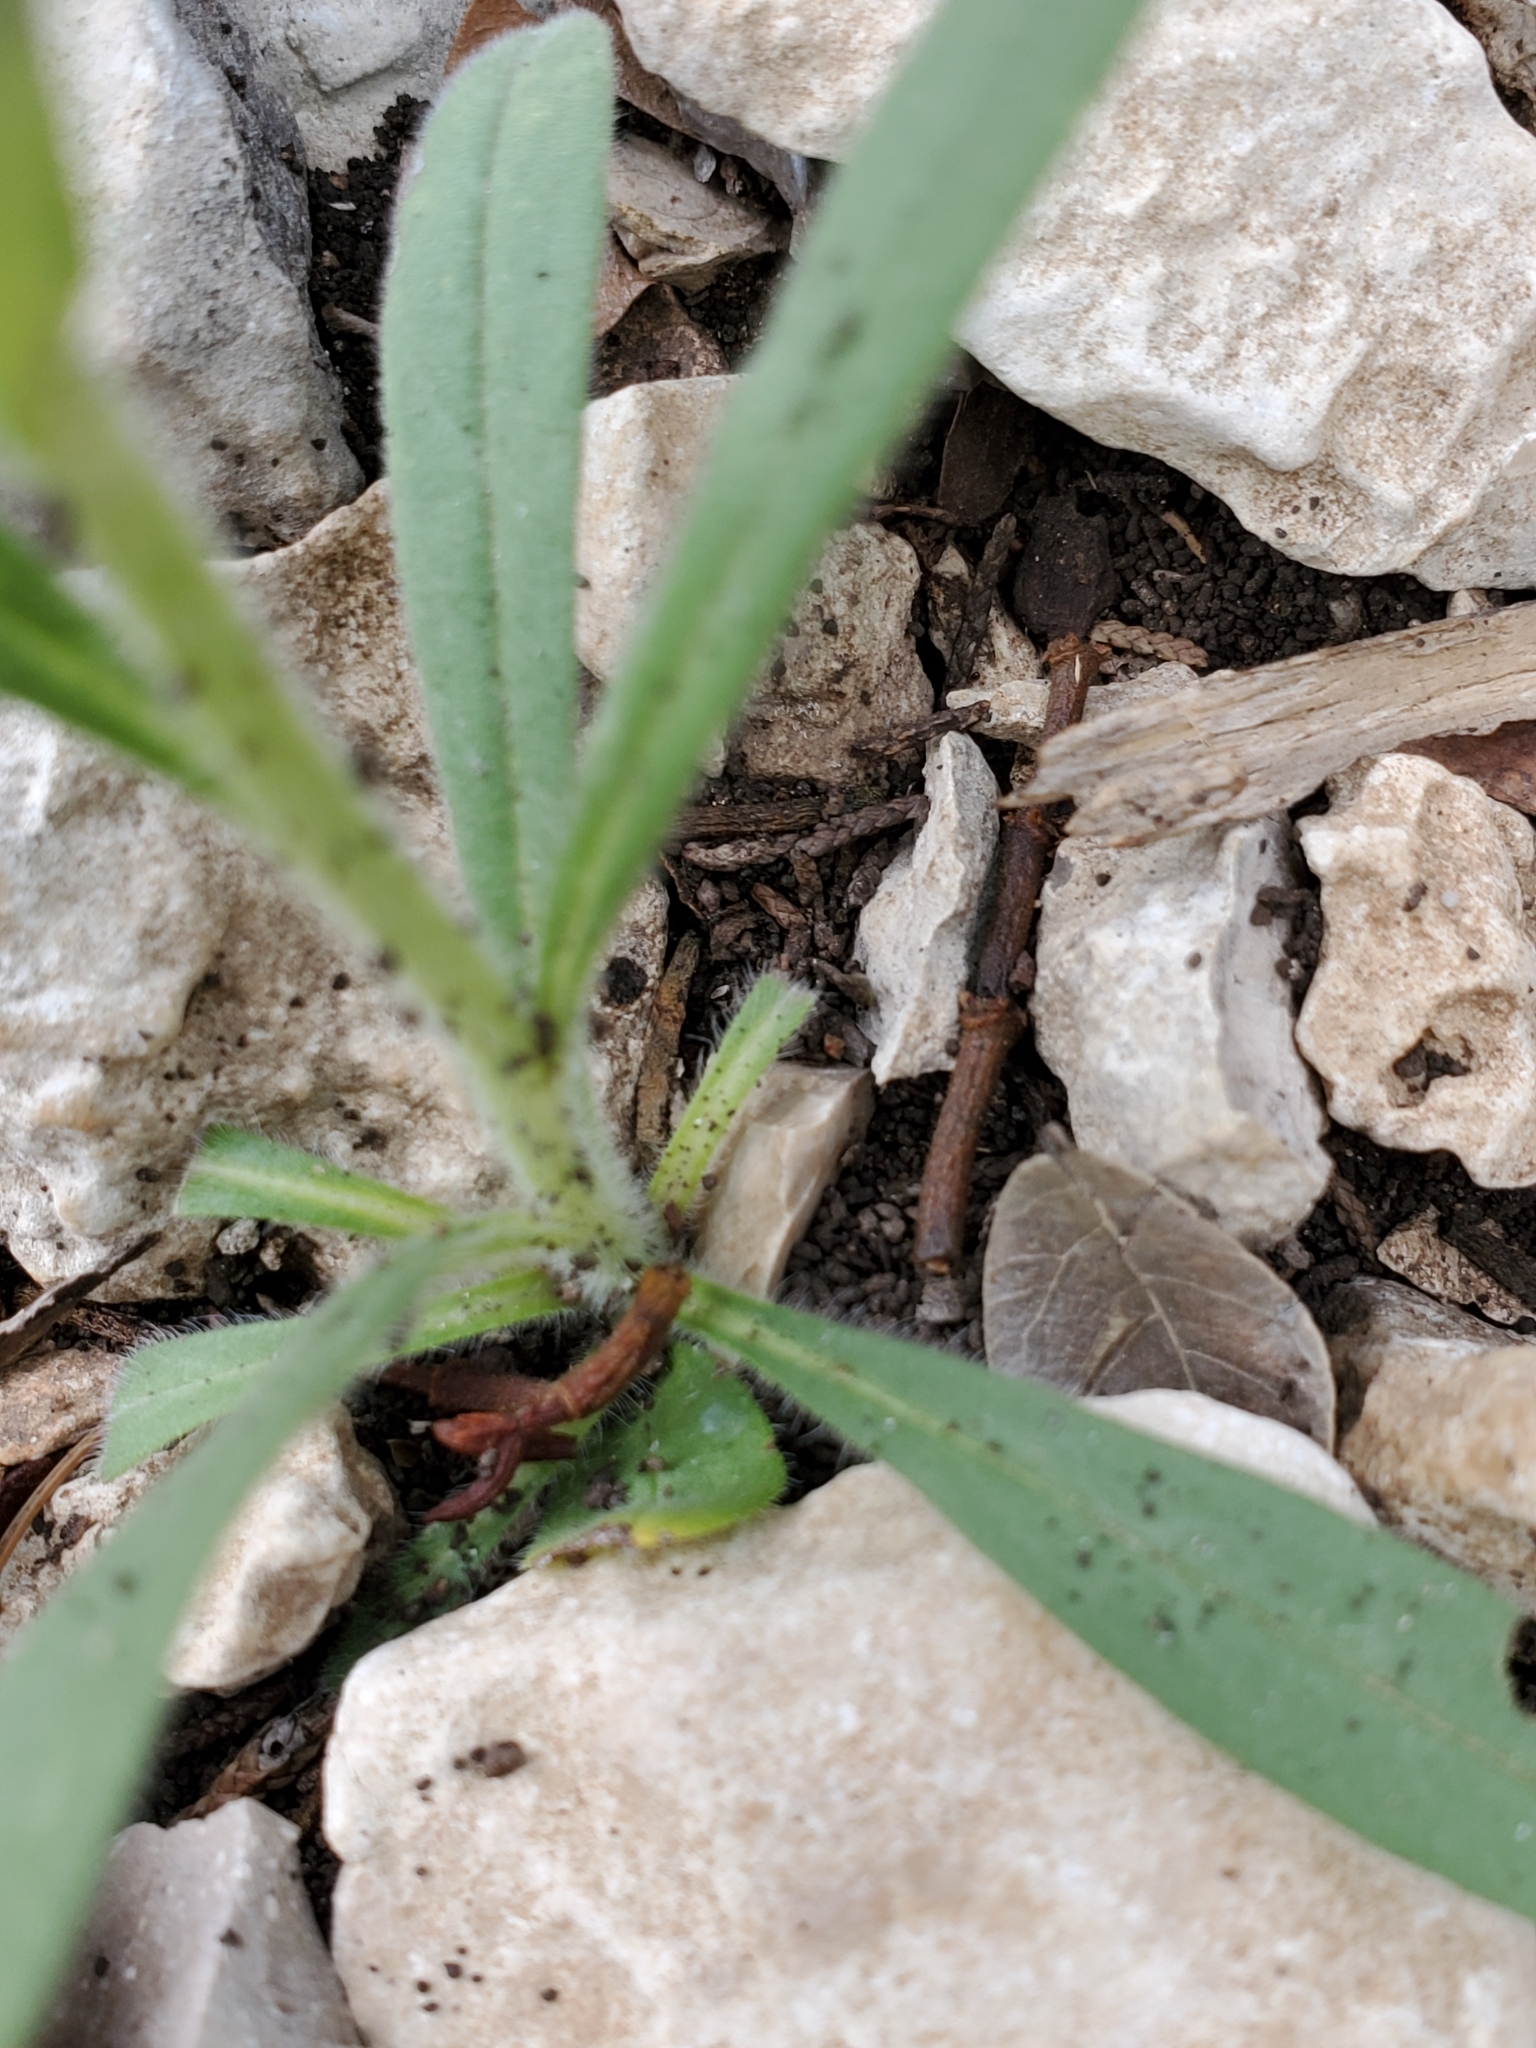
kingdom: Plantae
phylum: Tracheophyta
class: Magnoliopsida
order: Boraginales
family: Boraginaceae
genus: Lithospermum
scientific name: Lithospermum mirabile
